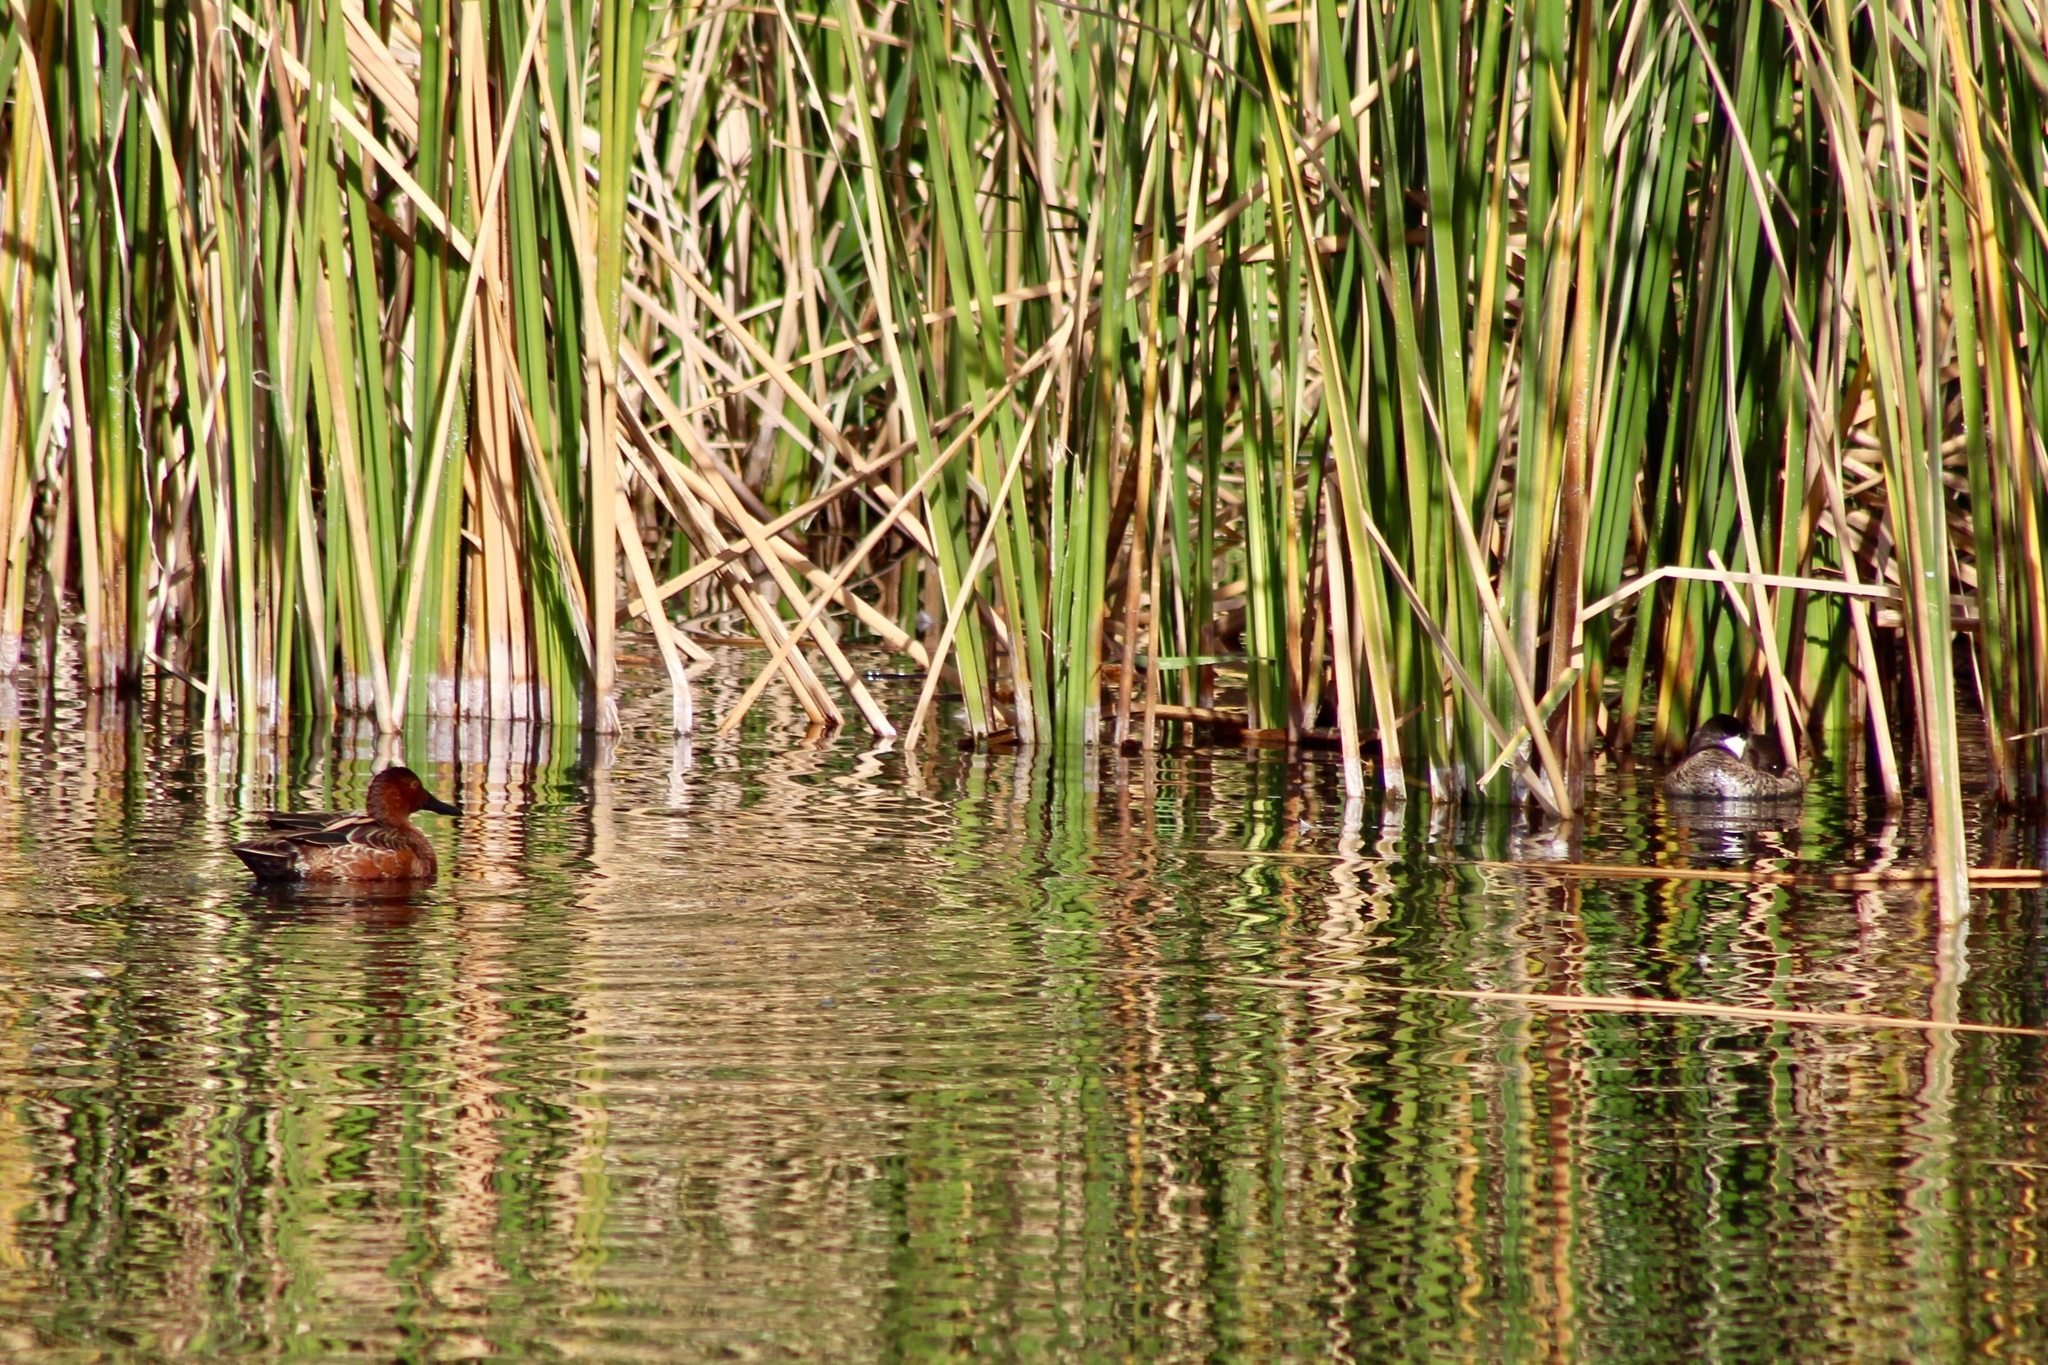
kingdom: Animalia
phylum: Chordata
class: Aves
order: Anseriformes
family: Anatidae
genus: Spatula
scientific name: Spatula cyanoptera
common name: Cinnamon teal
